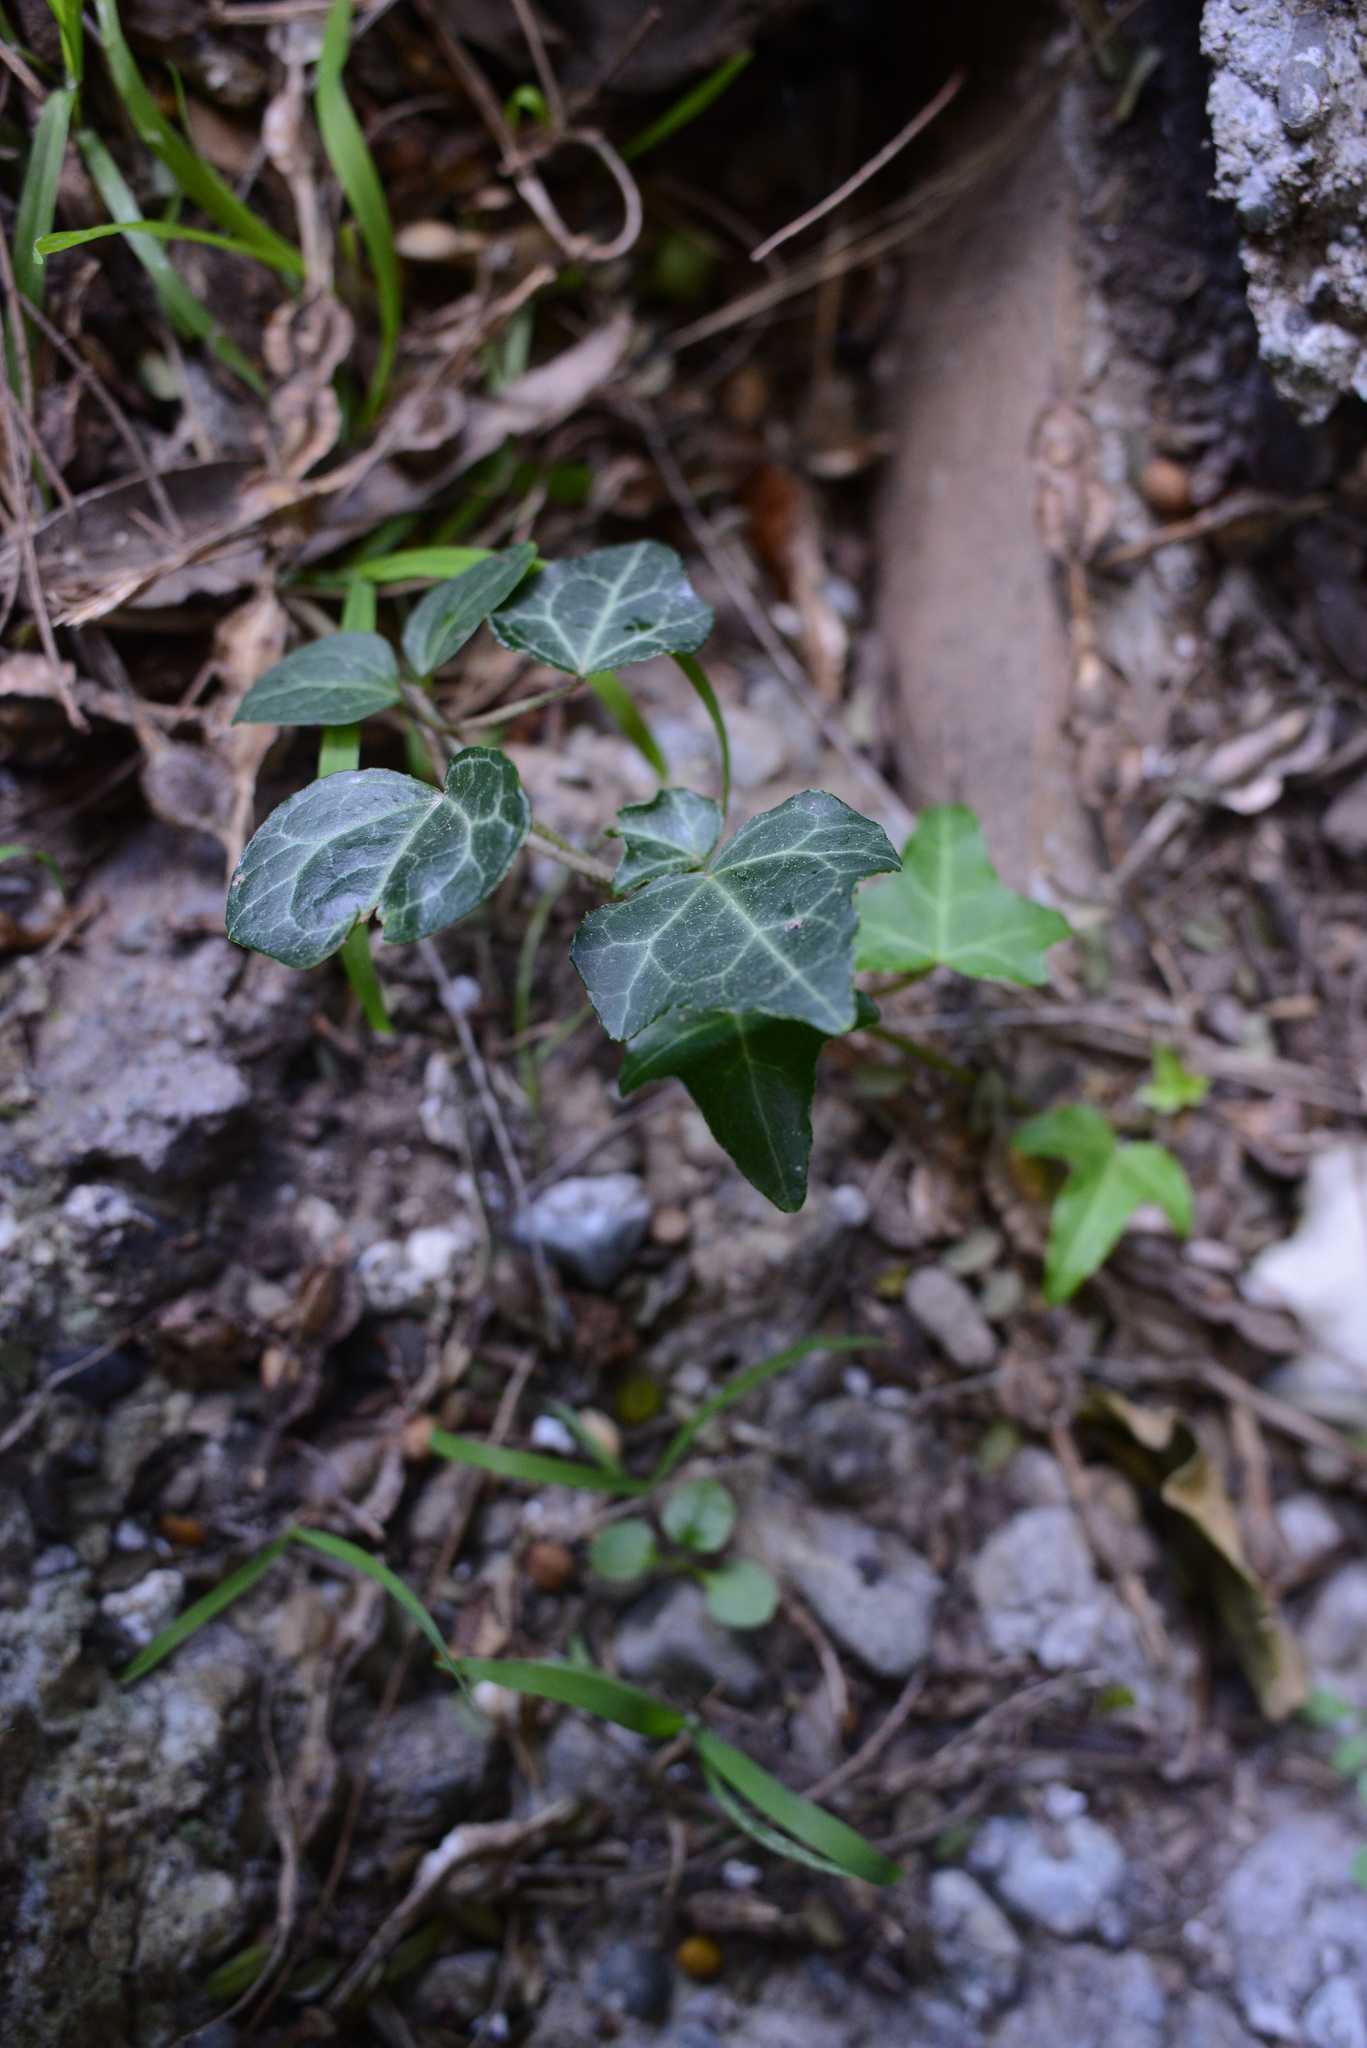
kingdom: Plantae
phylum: Tracheophyta
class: Magnoliopsida
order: Apiales
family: Araliaceae
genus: Hedera
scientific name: Hedera helix
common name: Ivy
